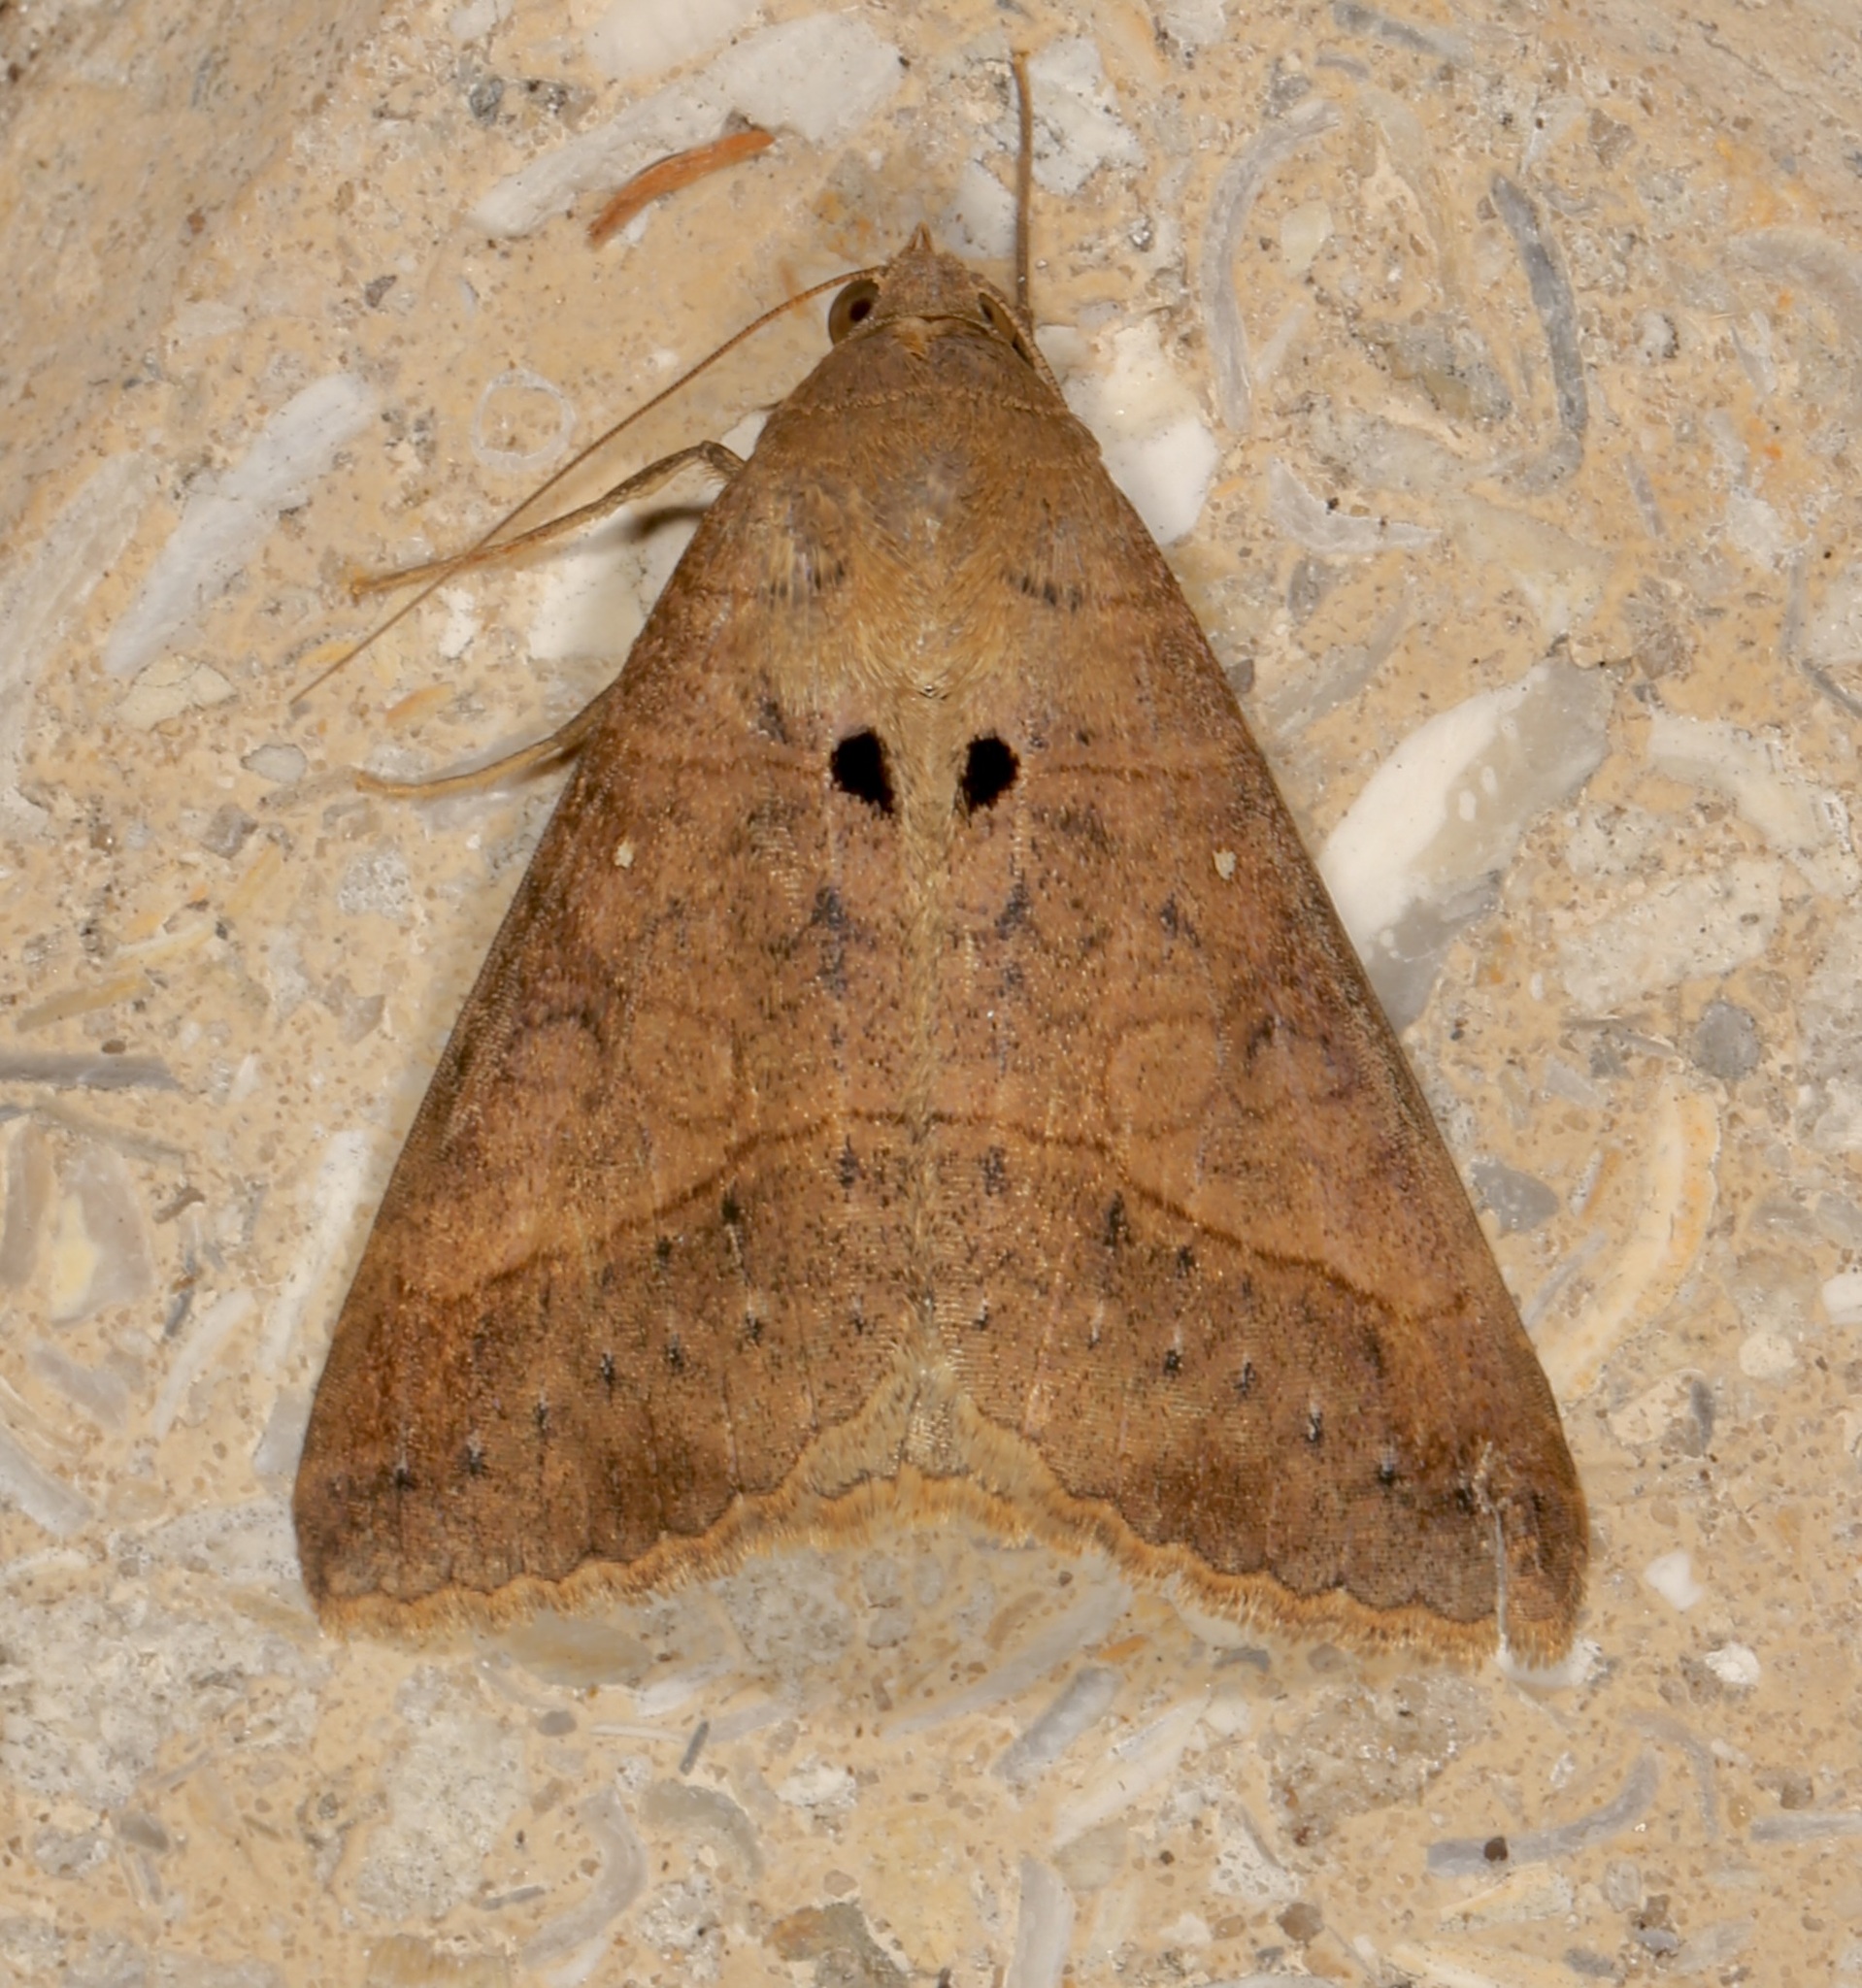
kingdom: Animalia
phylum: Arthropoda
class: Insecta
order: Lepidoptera
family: Erebidae
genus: Mocis
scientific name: Mocis latipes
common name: Striped grass looper
